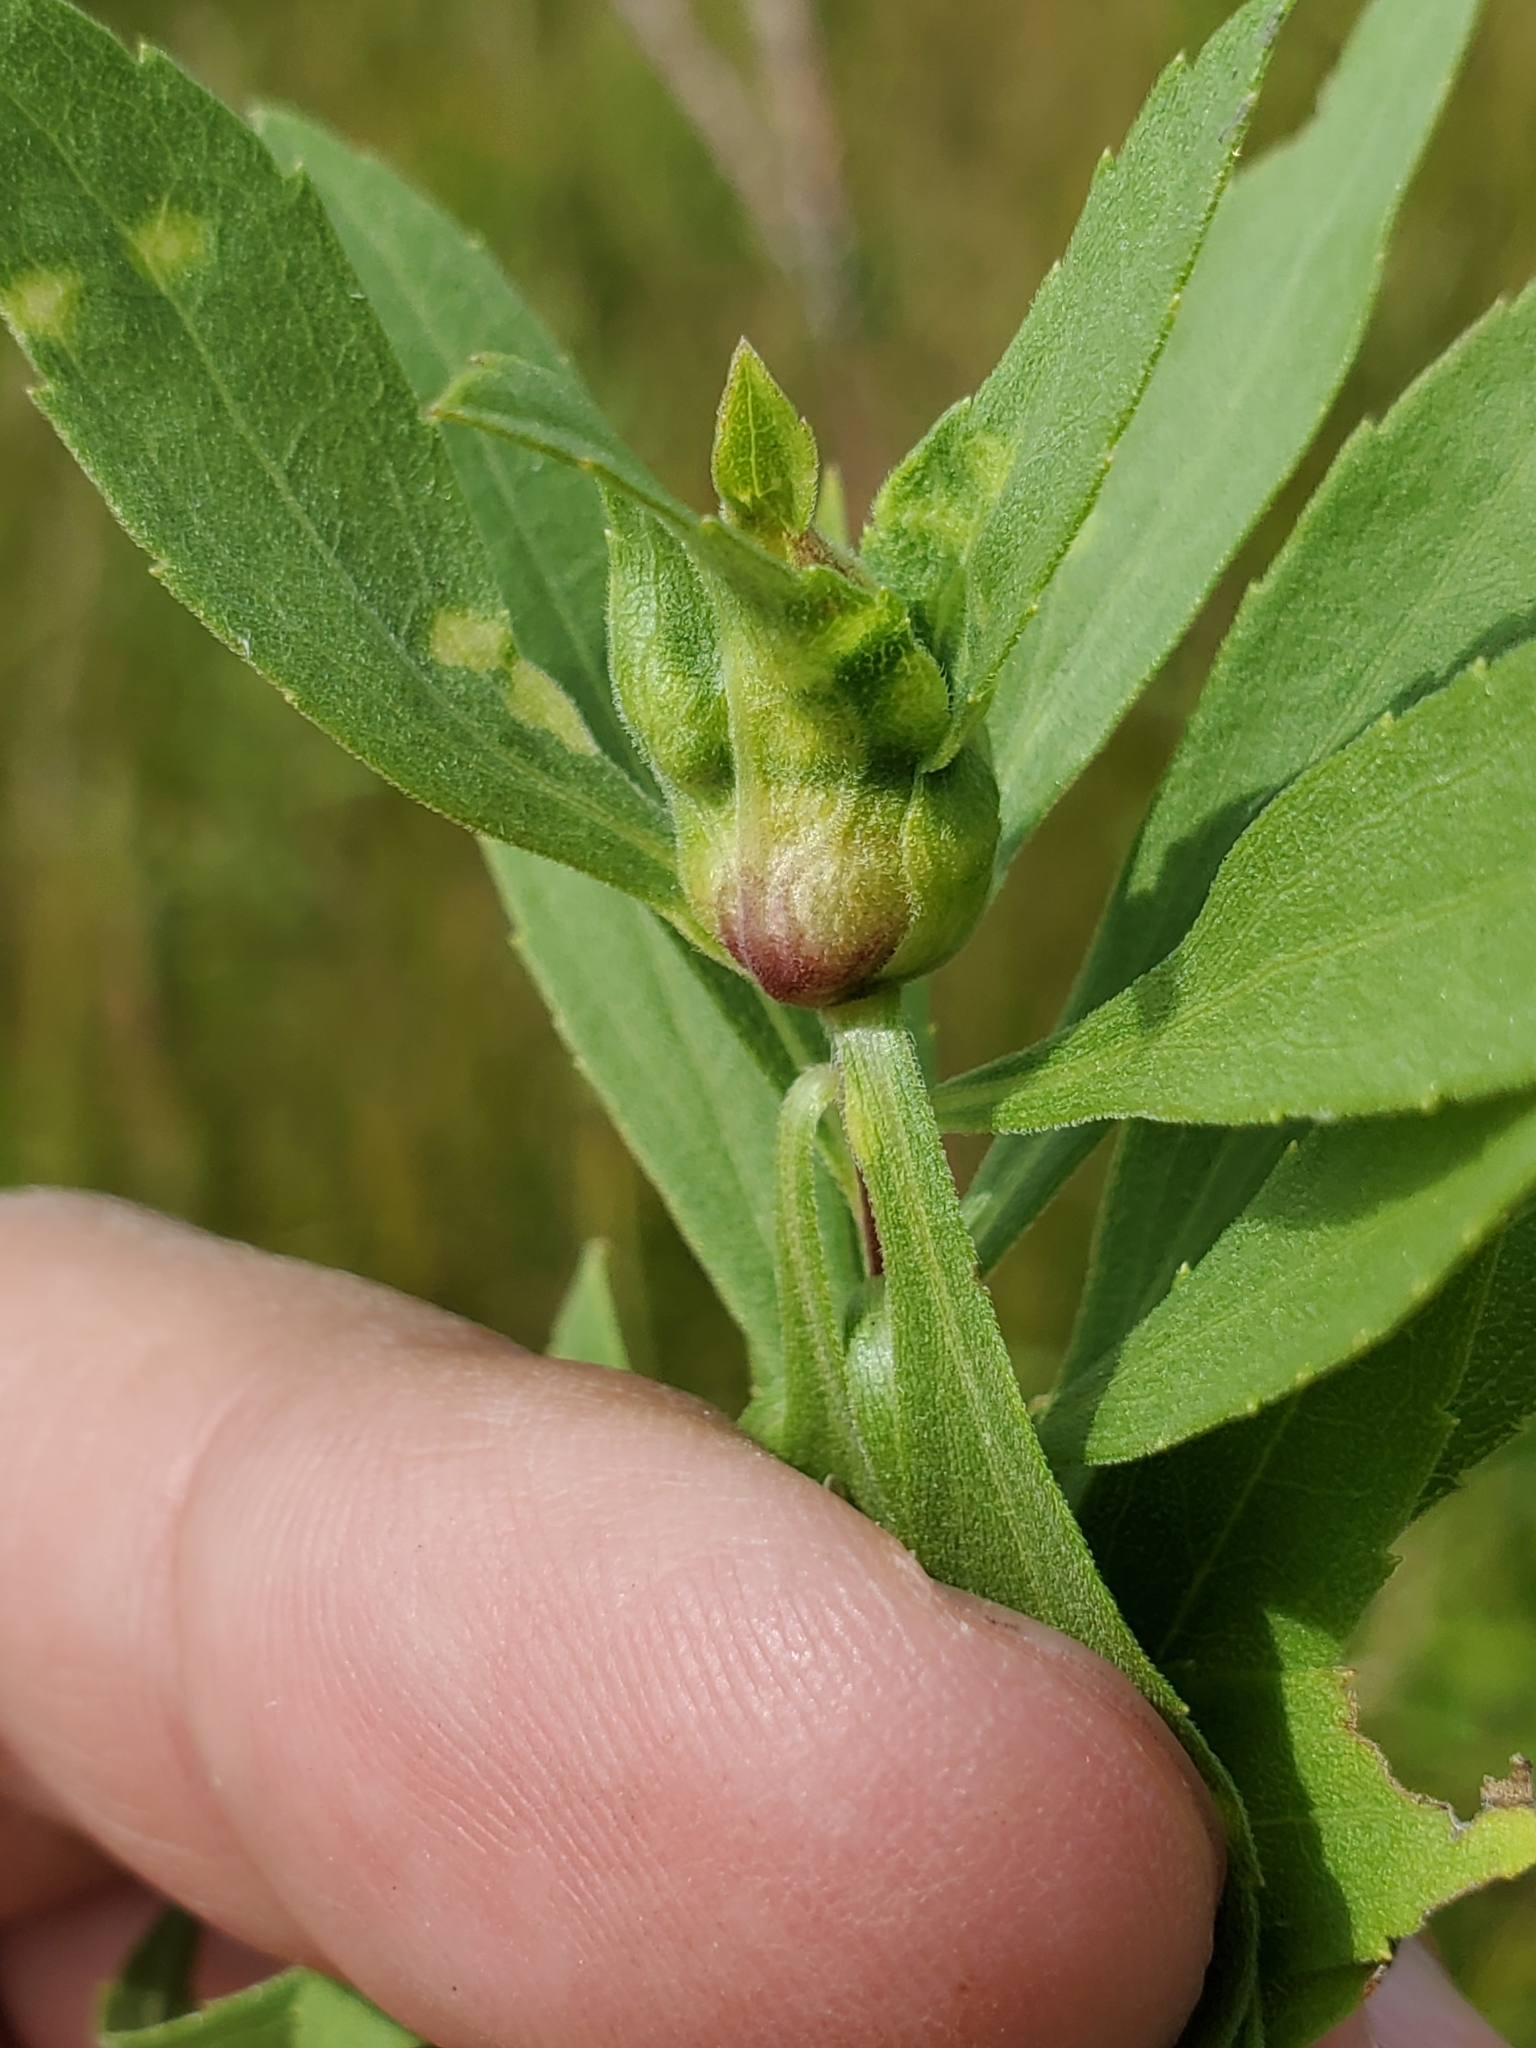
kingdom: Animalia
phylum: Arthropoda
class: Insecta
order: Diptera
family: Cecidomyiidae
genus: Dasineura
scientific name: Dasineura folliculi
